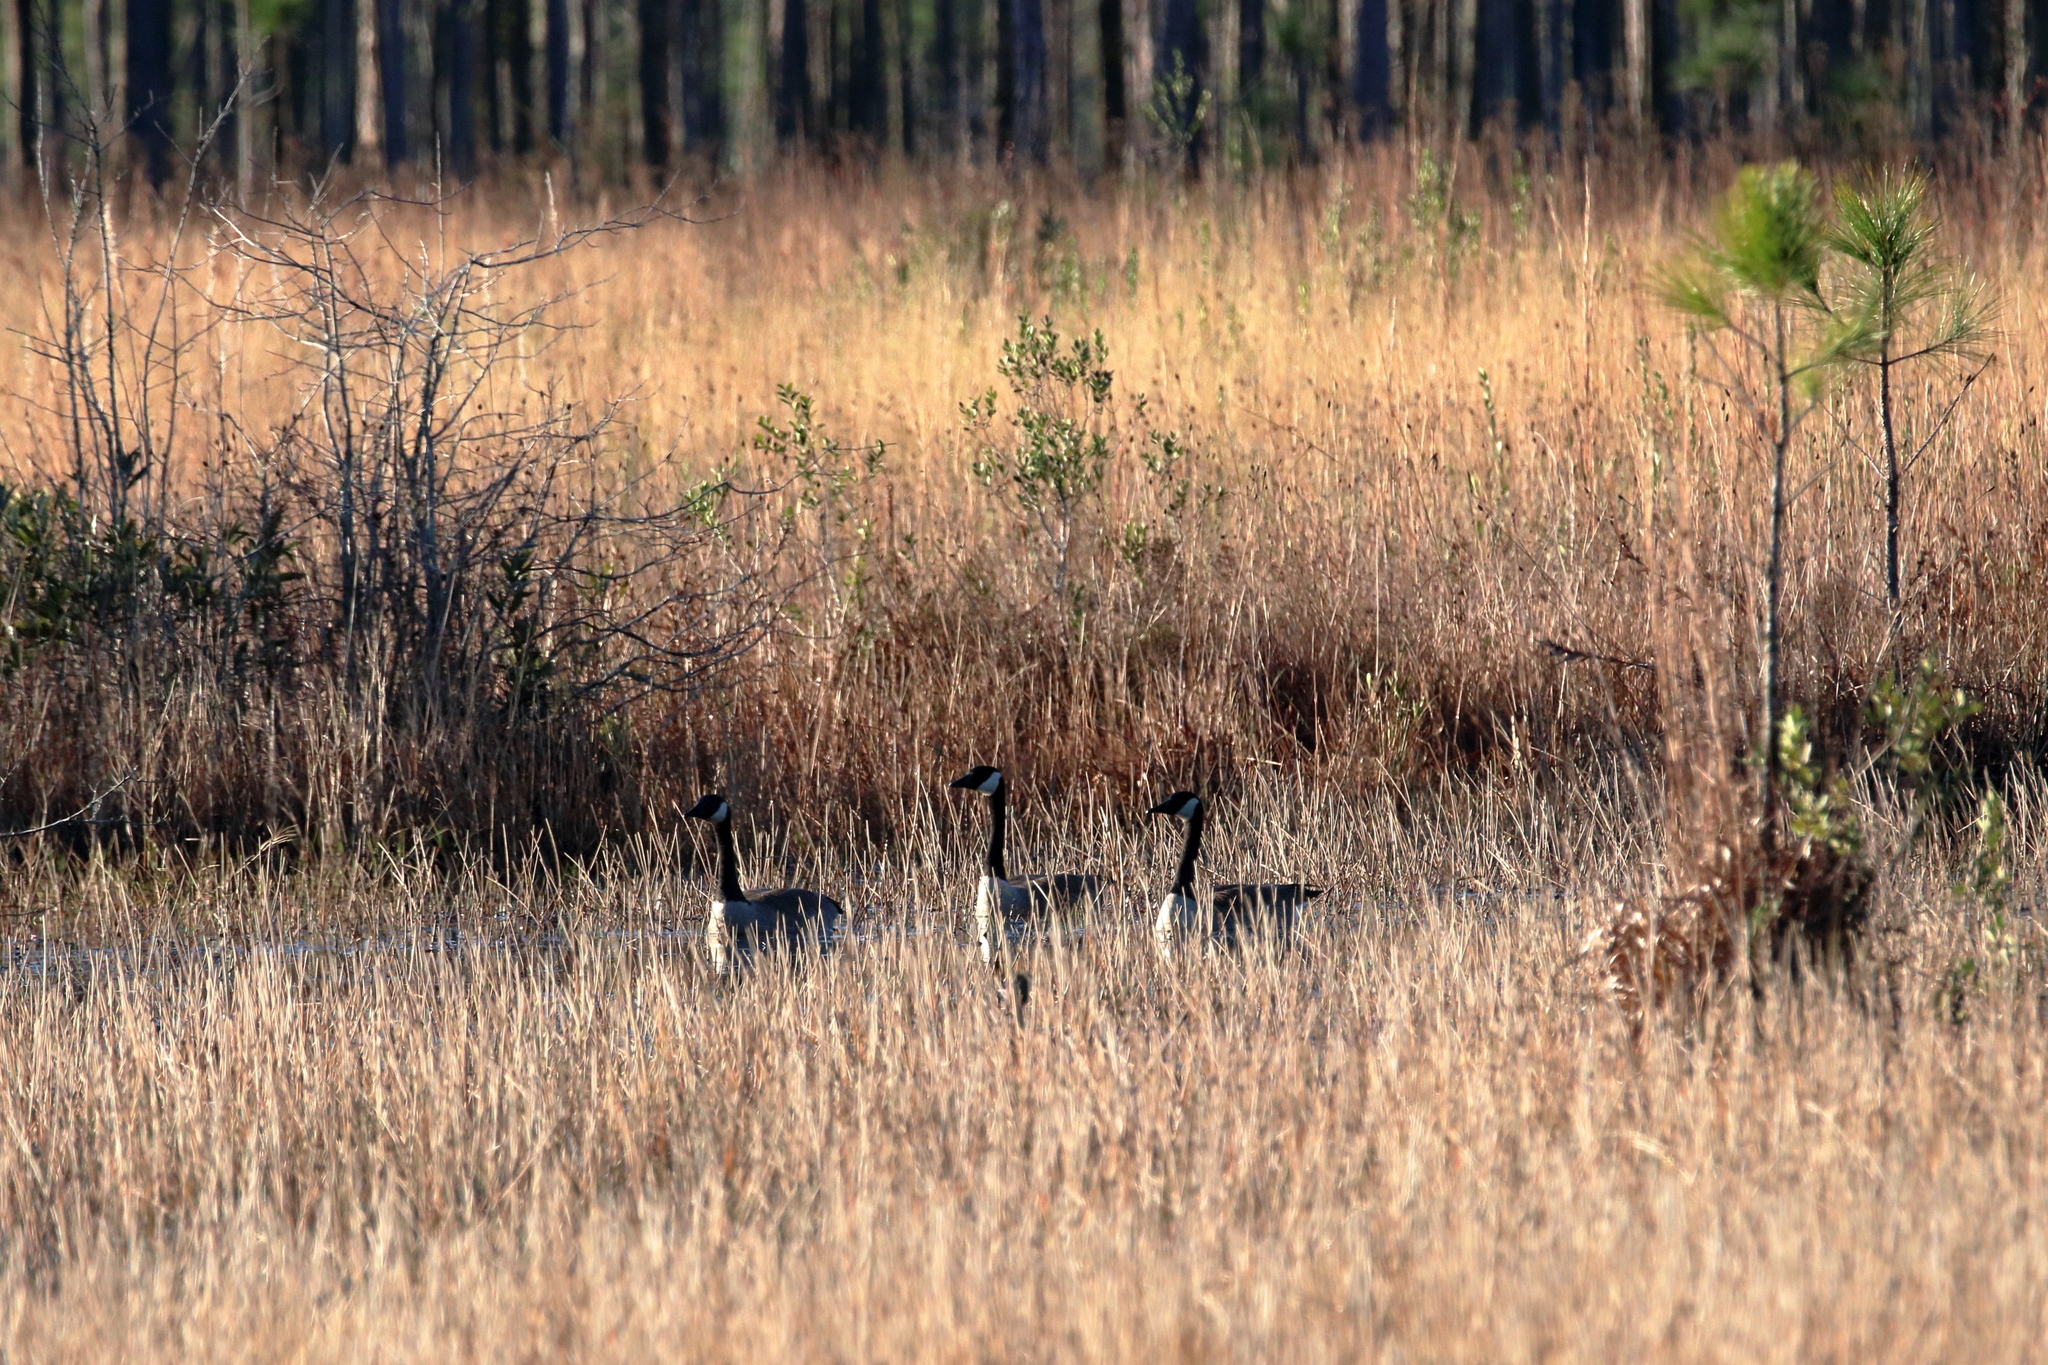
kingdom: Animalia
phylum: Chordata
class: Aves
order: Anseriformes
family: Anatidae
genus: Branta
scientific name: Branta canadensis
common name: Canada goose
